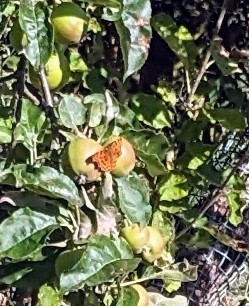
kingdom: Animalia
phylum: Arthropoda
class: Insecta
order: Lepidoptera
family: Nymphalidae
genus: Polygonia
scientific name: Polygonia c-album
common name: Comma
